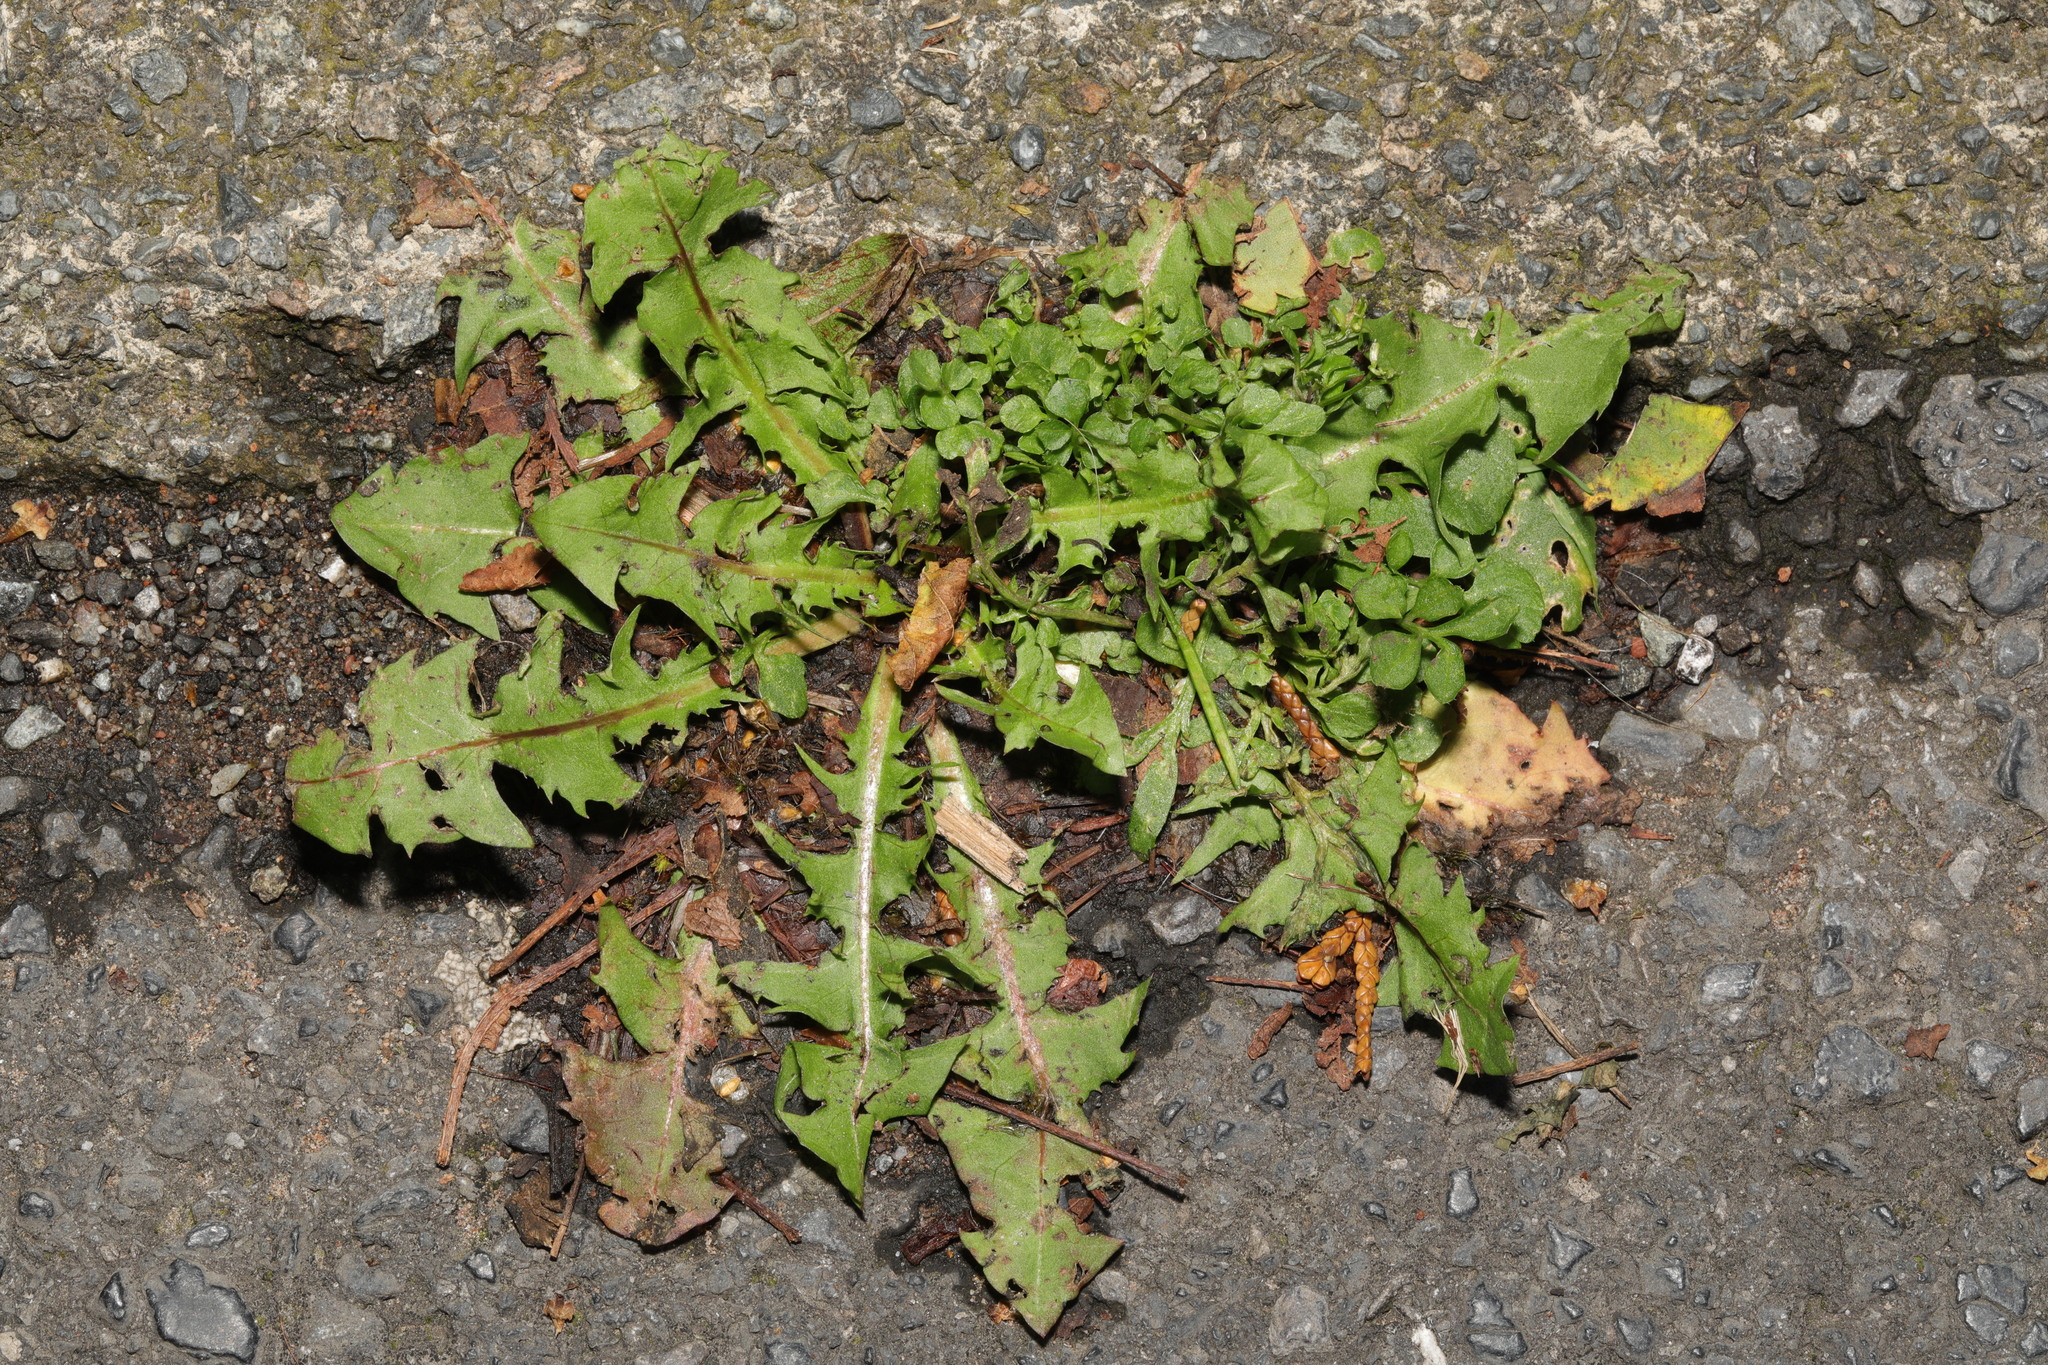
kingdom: Plantae
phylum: Tracheophyta
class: Magnoliopsida
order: Asterales
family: Asteraceae
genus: Taraxacum
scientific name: Taraxacum officinale
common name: Common dandelion
